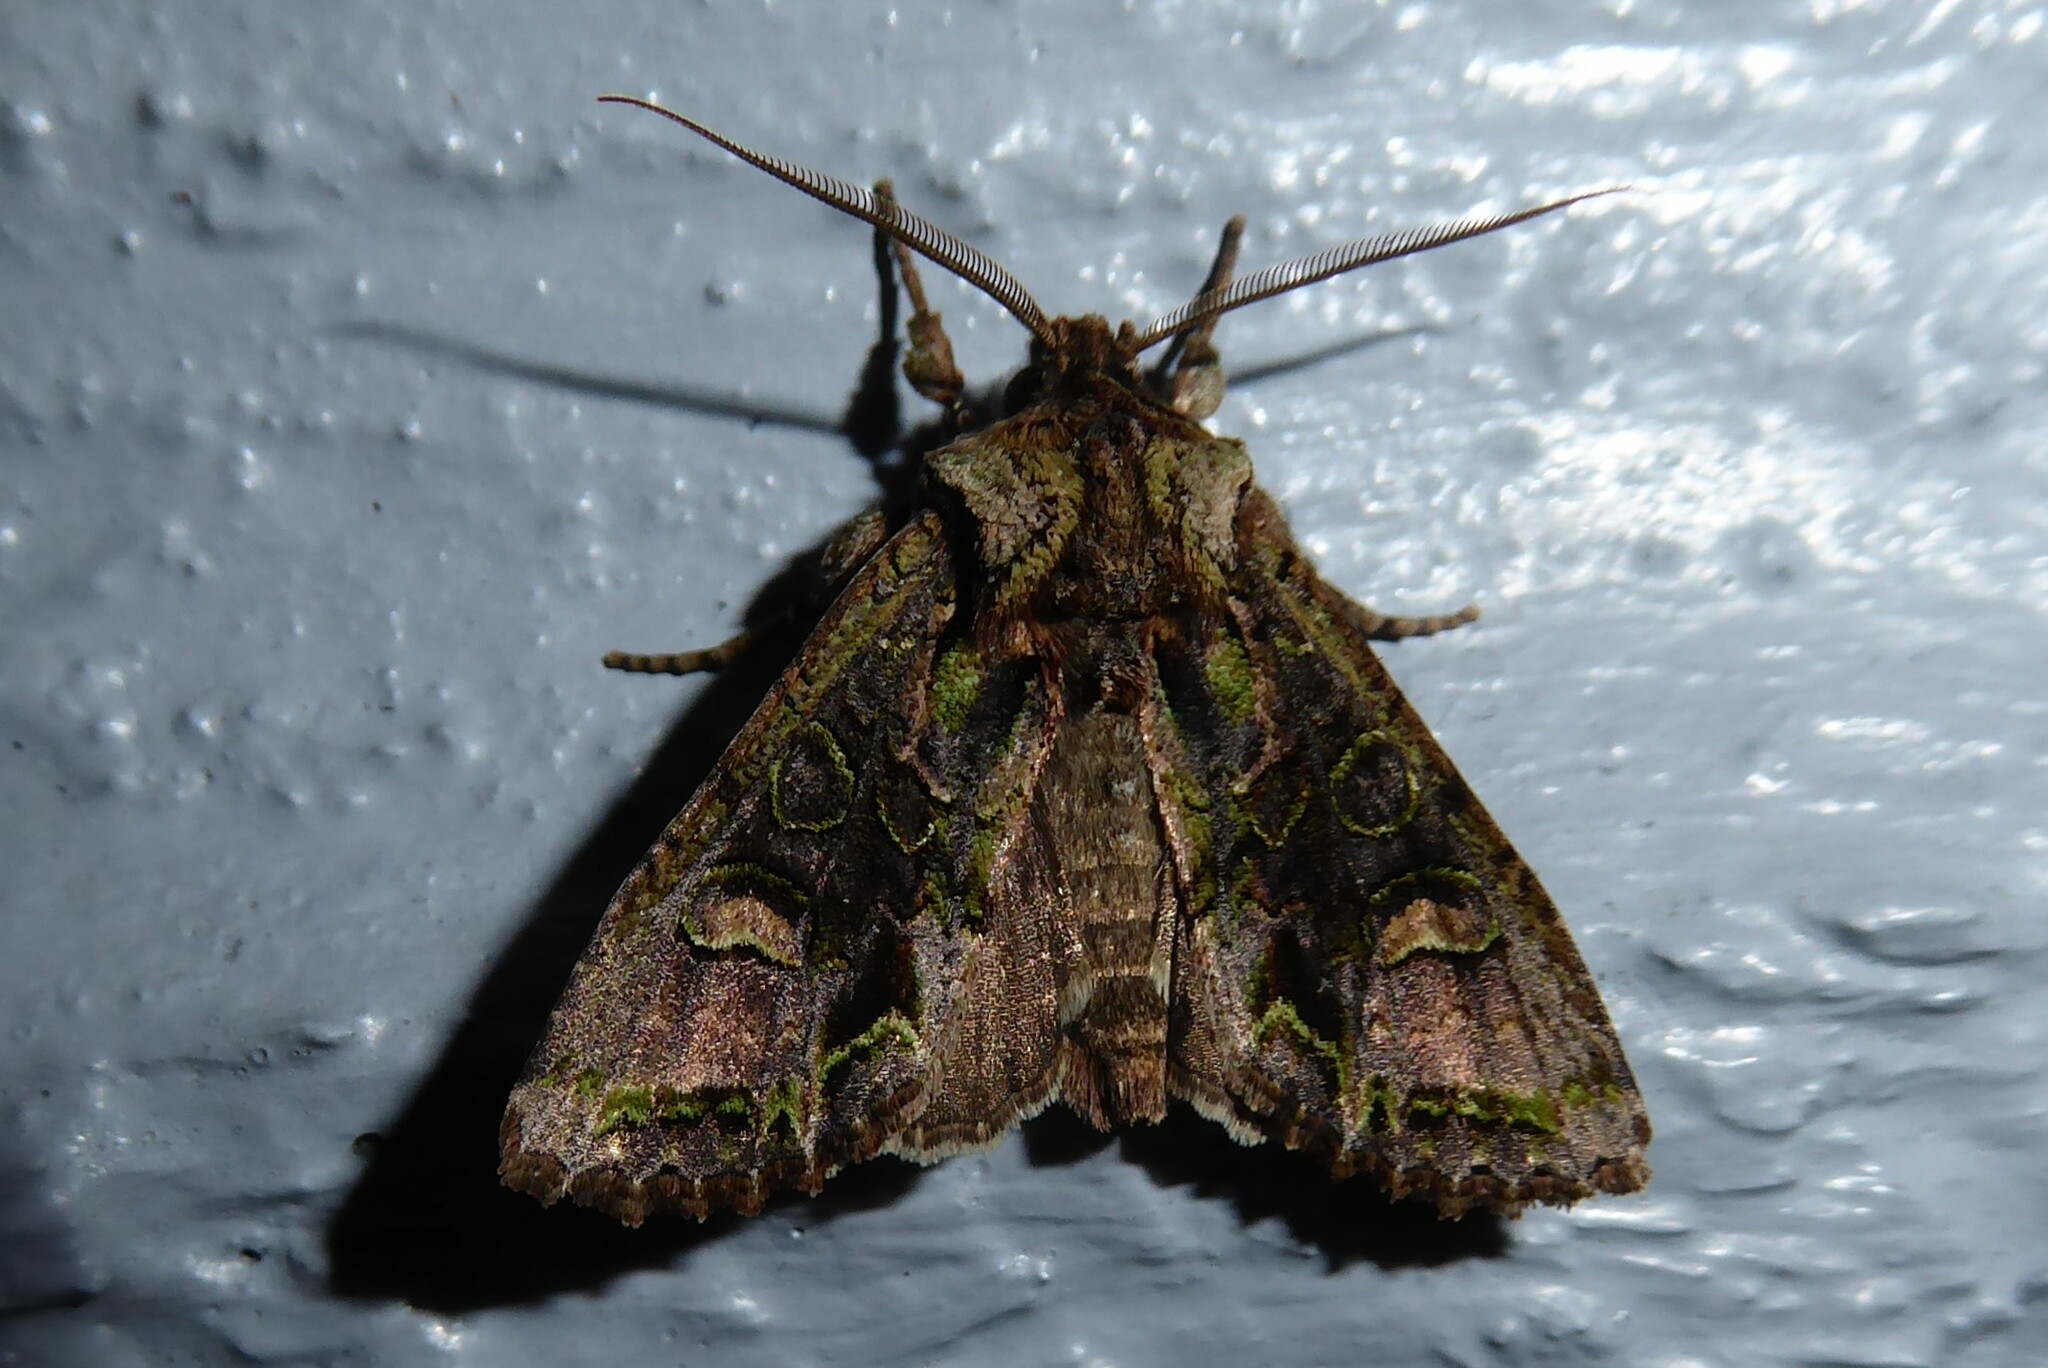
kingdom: Animalia
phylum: Arthropoda
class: Insecta
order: Lepidoptera
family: Noctuidae
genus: Ichneutica
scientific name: Ichneutica insignis
